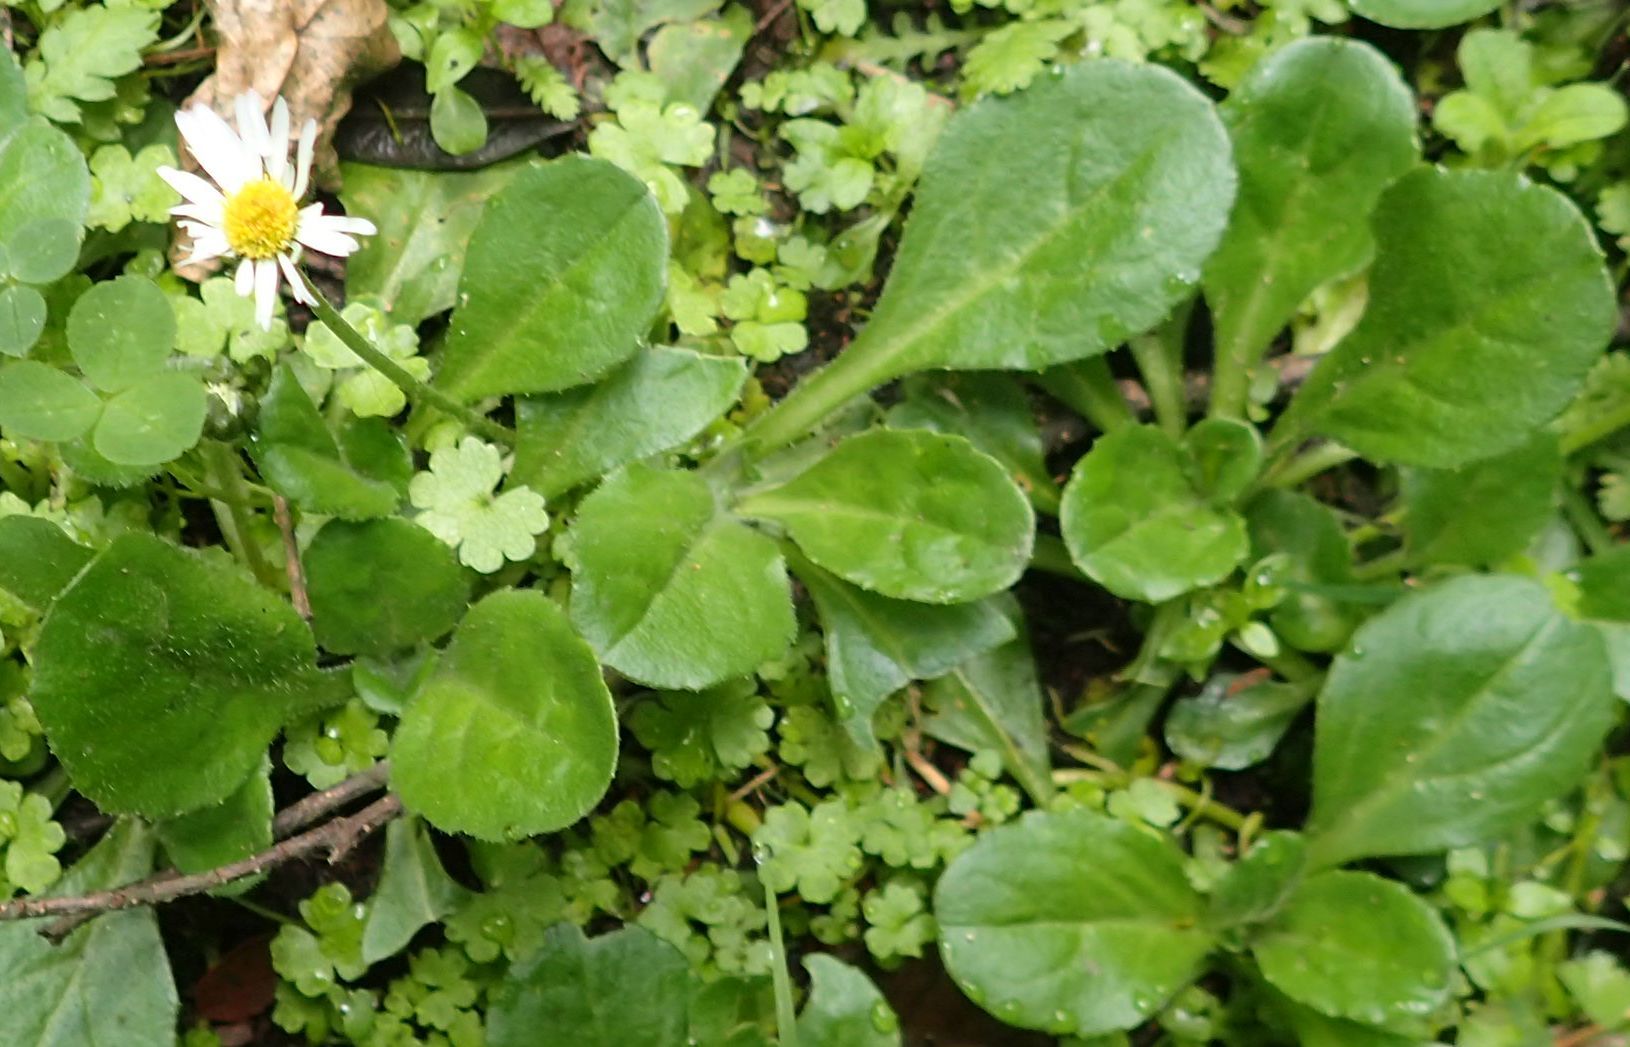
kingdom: Plantae
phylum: Tracheophyta
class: Magnoliopsida
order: Asterales
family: Asteraceae
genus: Bellis
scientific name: Bellis perennis
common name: Lawndaisy
